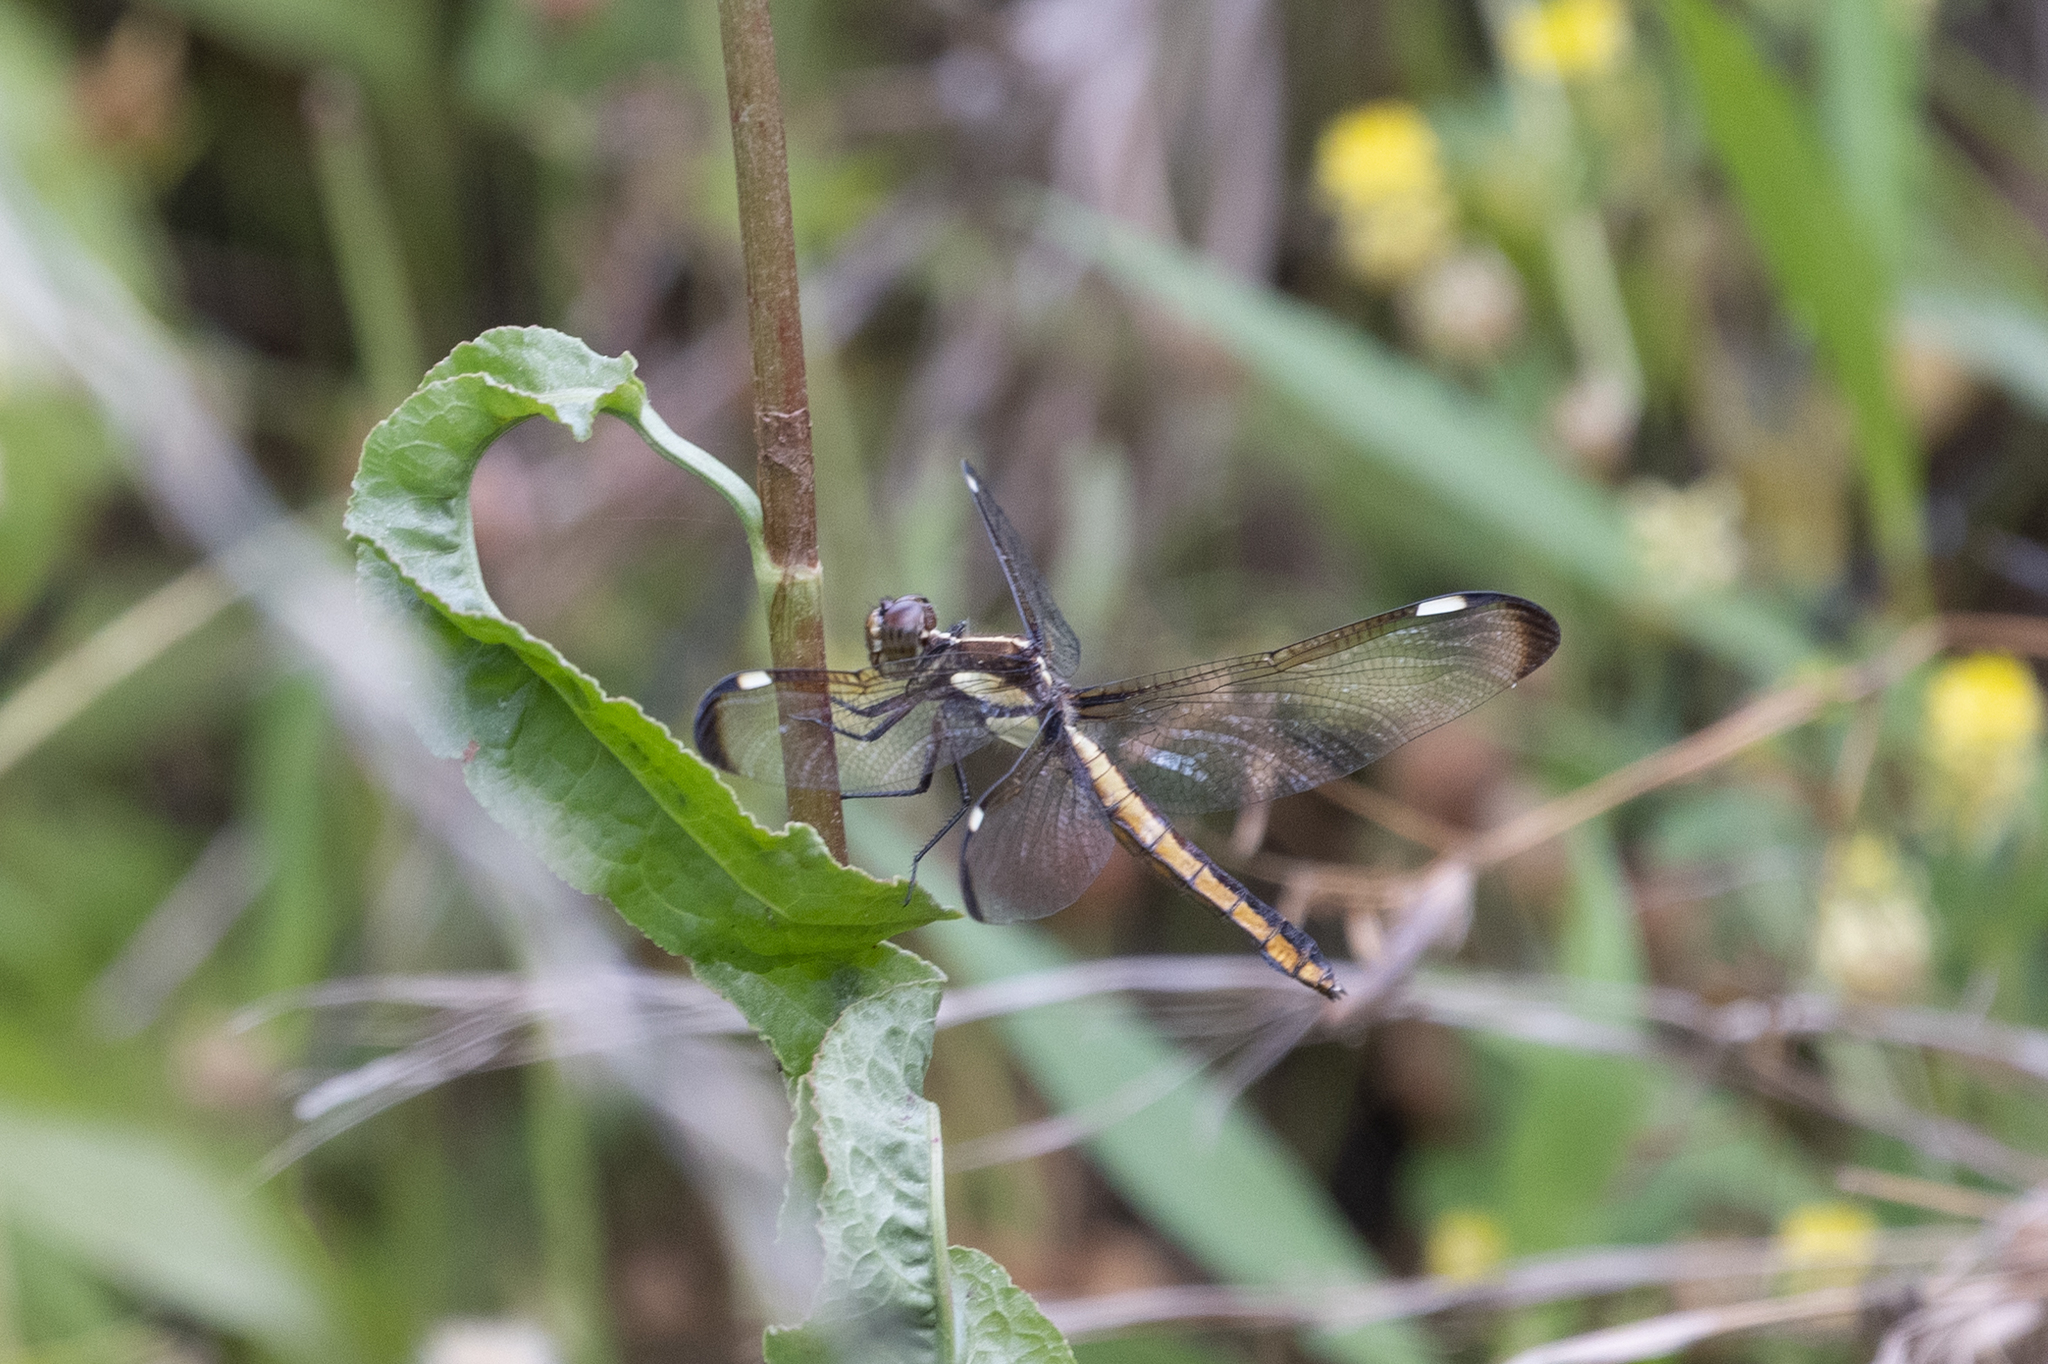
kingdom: Animalia
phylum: Arthropoda
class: Insecta
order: Odonata
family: Libellulidae
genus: Libellula
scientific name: Libellula cyanea
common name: Spangled skimmer
